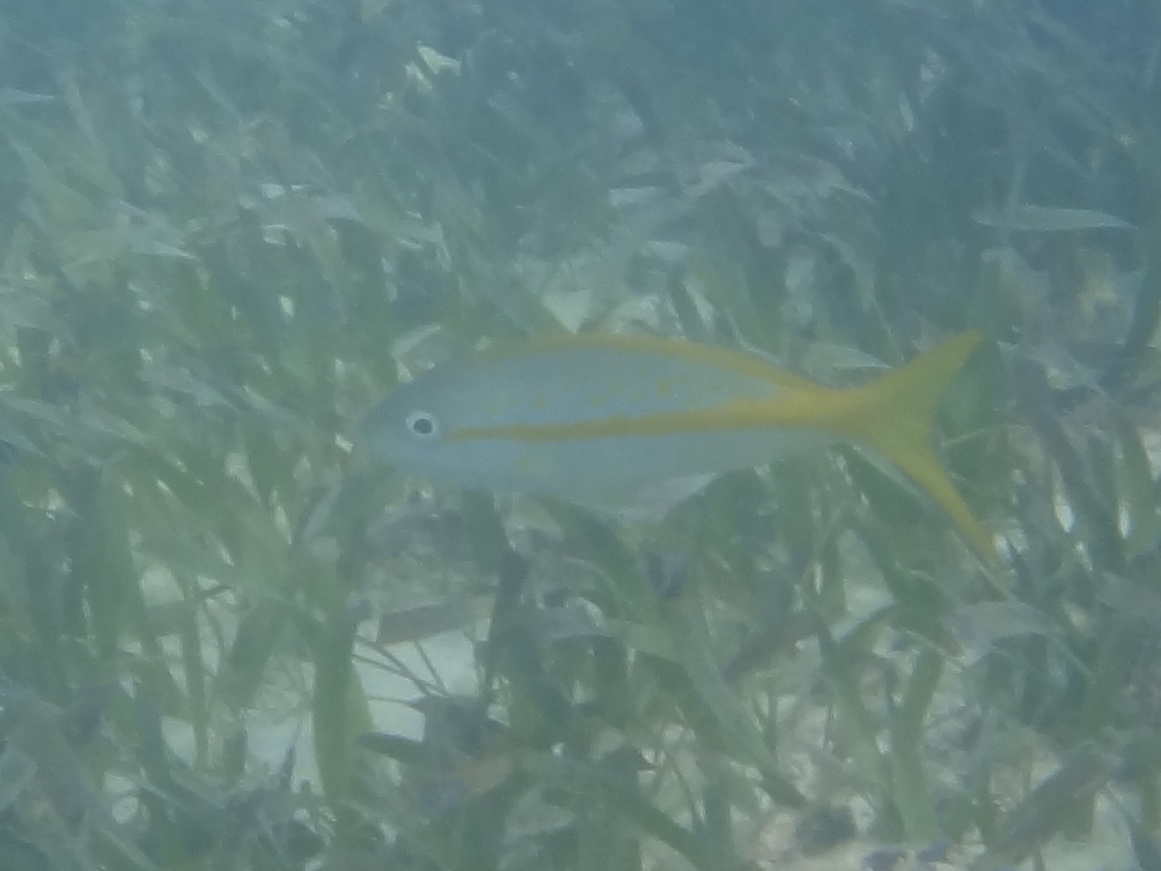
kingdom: Animalia
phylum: Chordata
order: Perciformes
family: Lutjanidae
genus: Ocyurus
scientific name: Ocyurus chrysurus
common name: Yellowtail snapper
